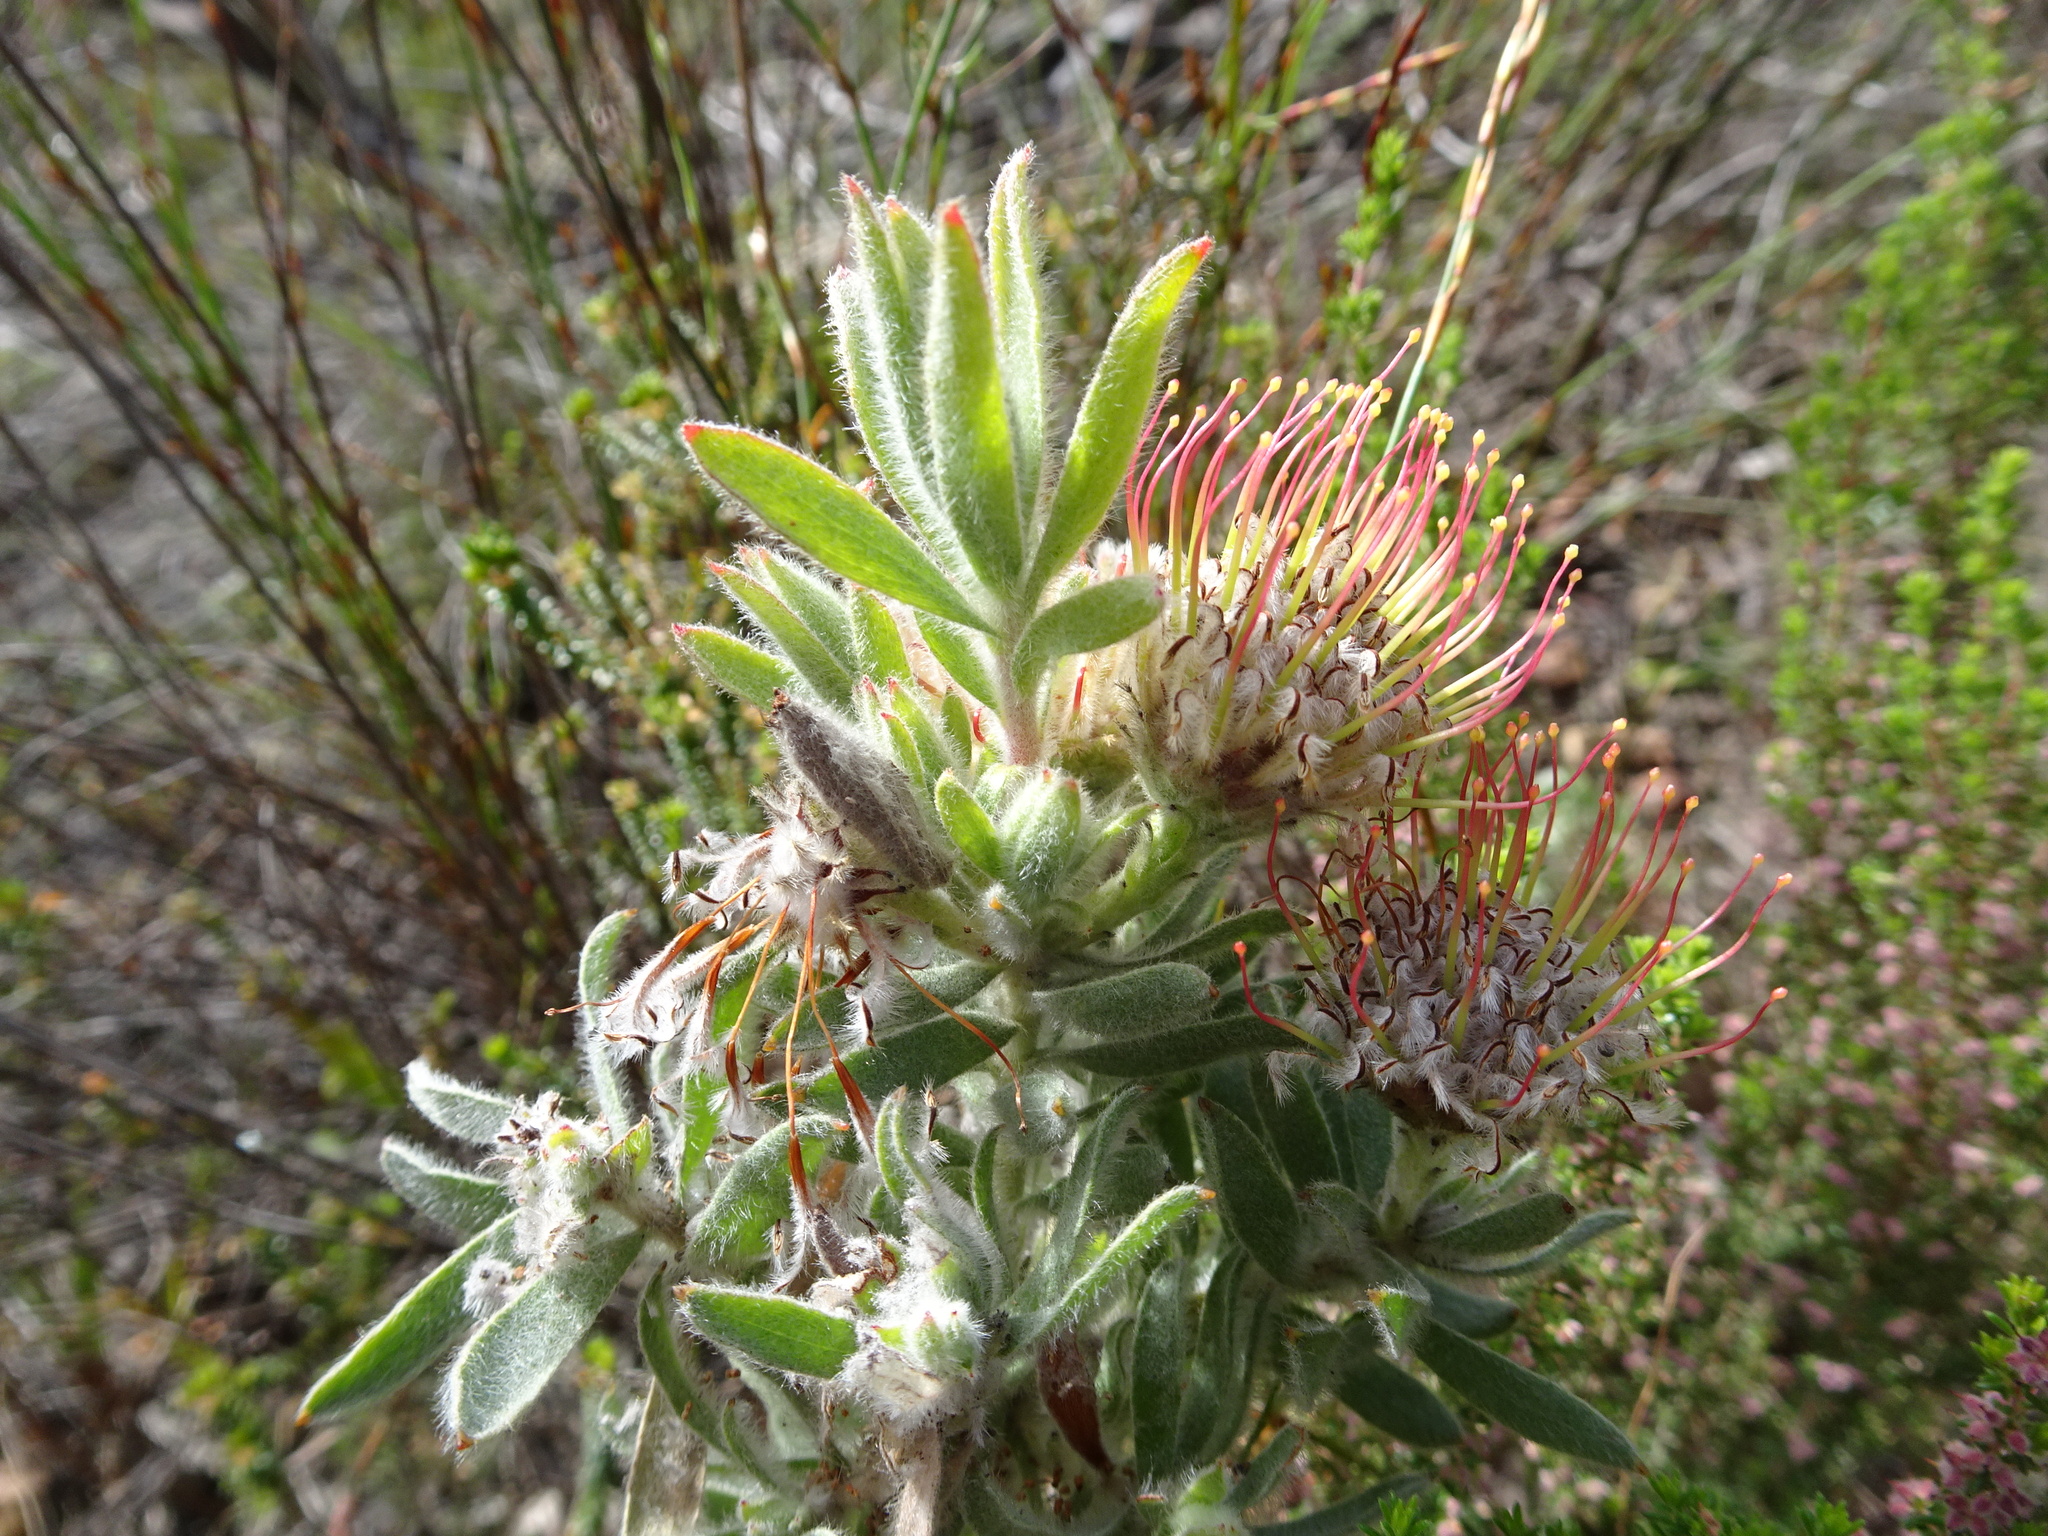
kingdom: Plantae
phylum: Tracheophyta
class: Magnoliopsida
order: Proteales
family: Proteaceae
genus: Leucospermum
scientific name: Leucospermum calligerum
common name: Arid pincushion
